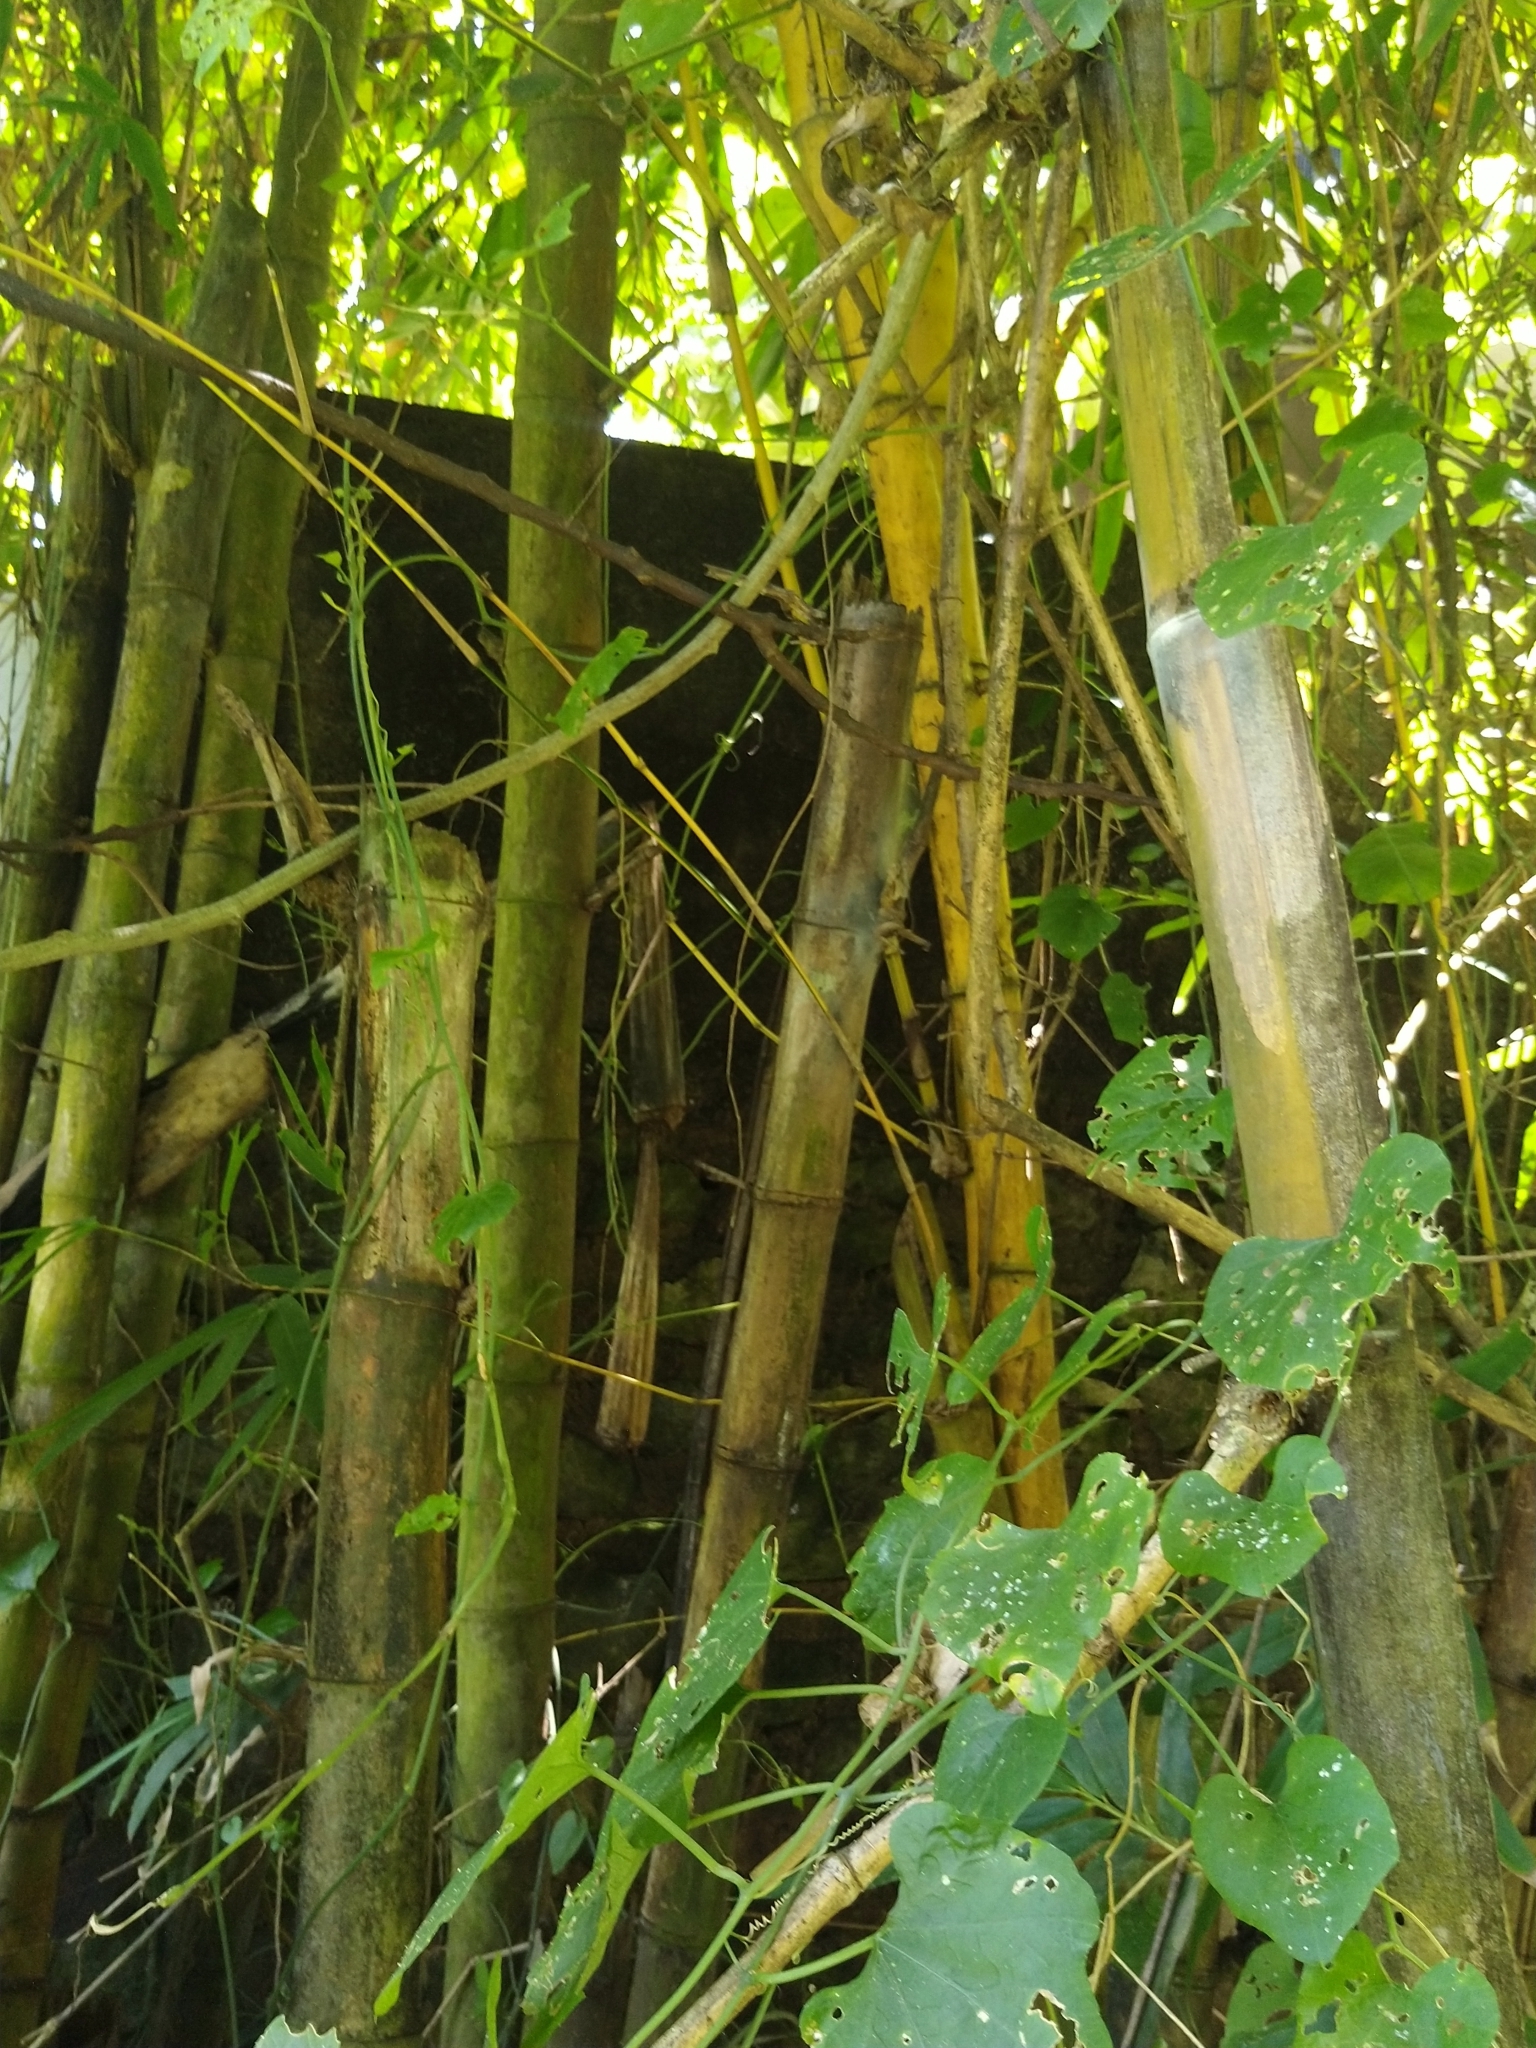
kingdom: Plantae
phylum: Tracheophyta
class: Liliopsida
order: Poales
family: Poaceae
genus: Bambusa
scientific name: Bambusa vulgaris
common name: Common bamboo
